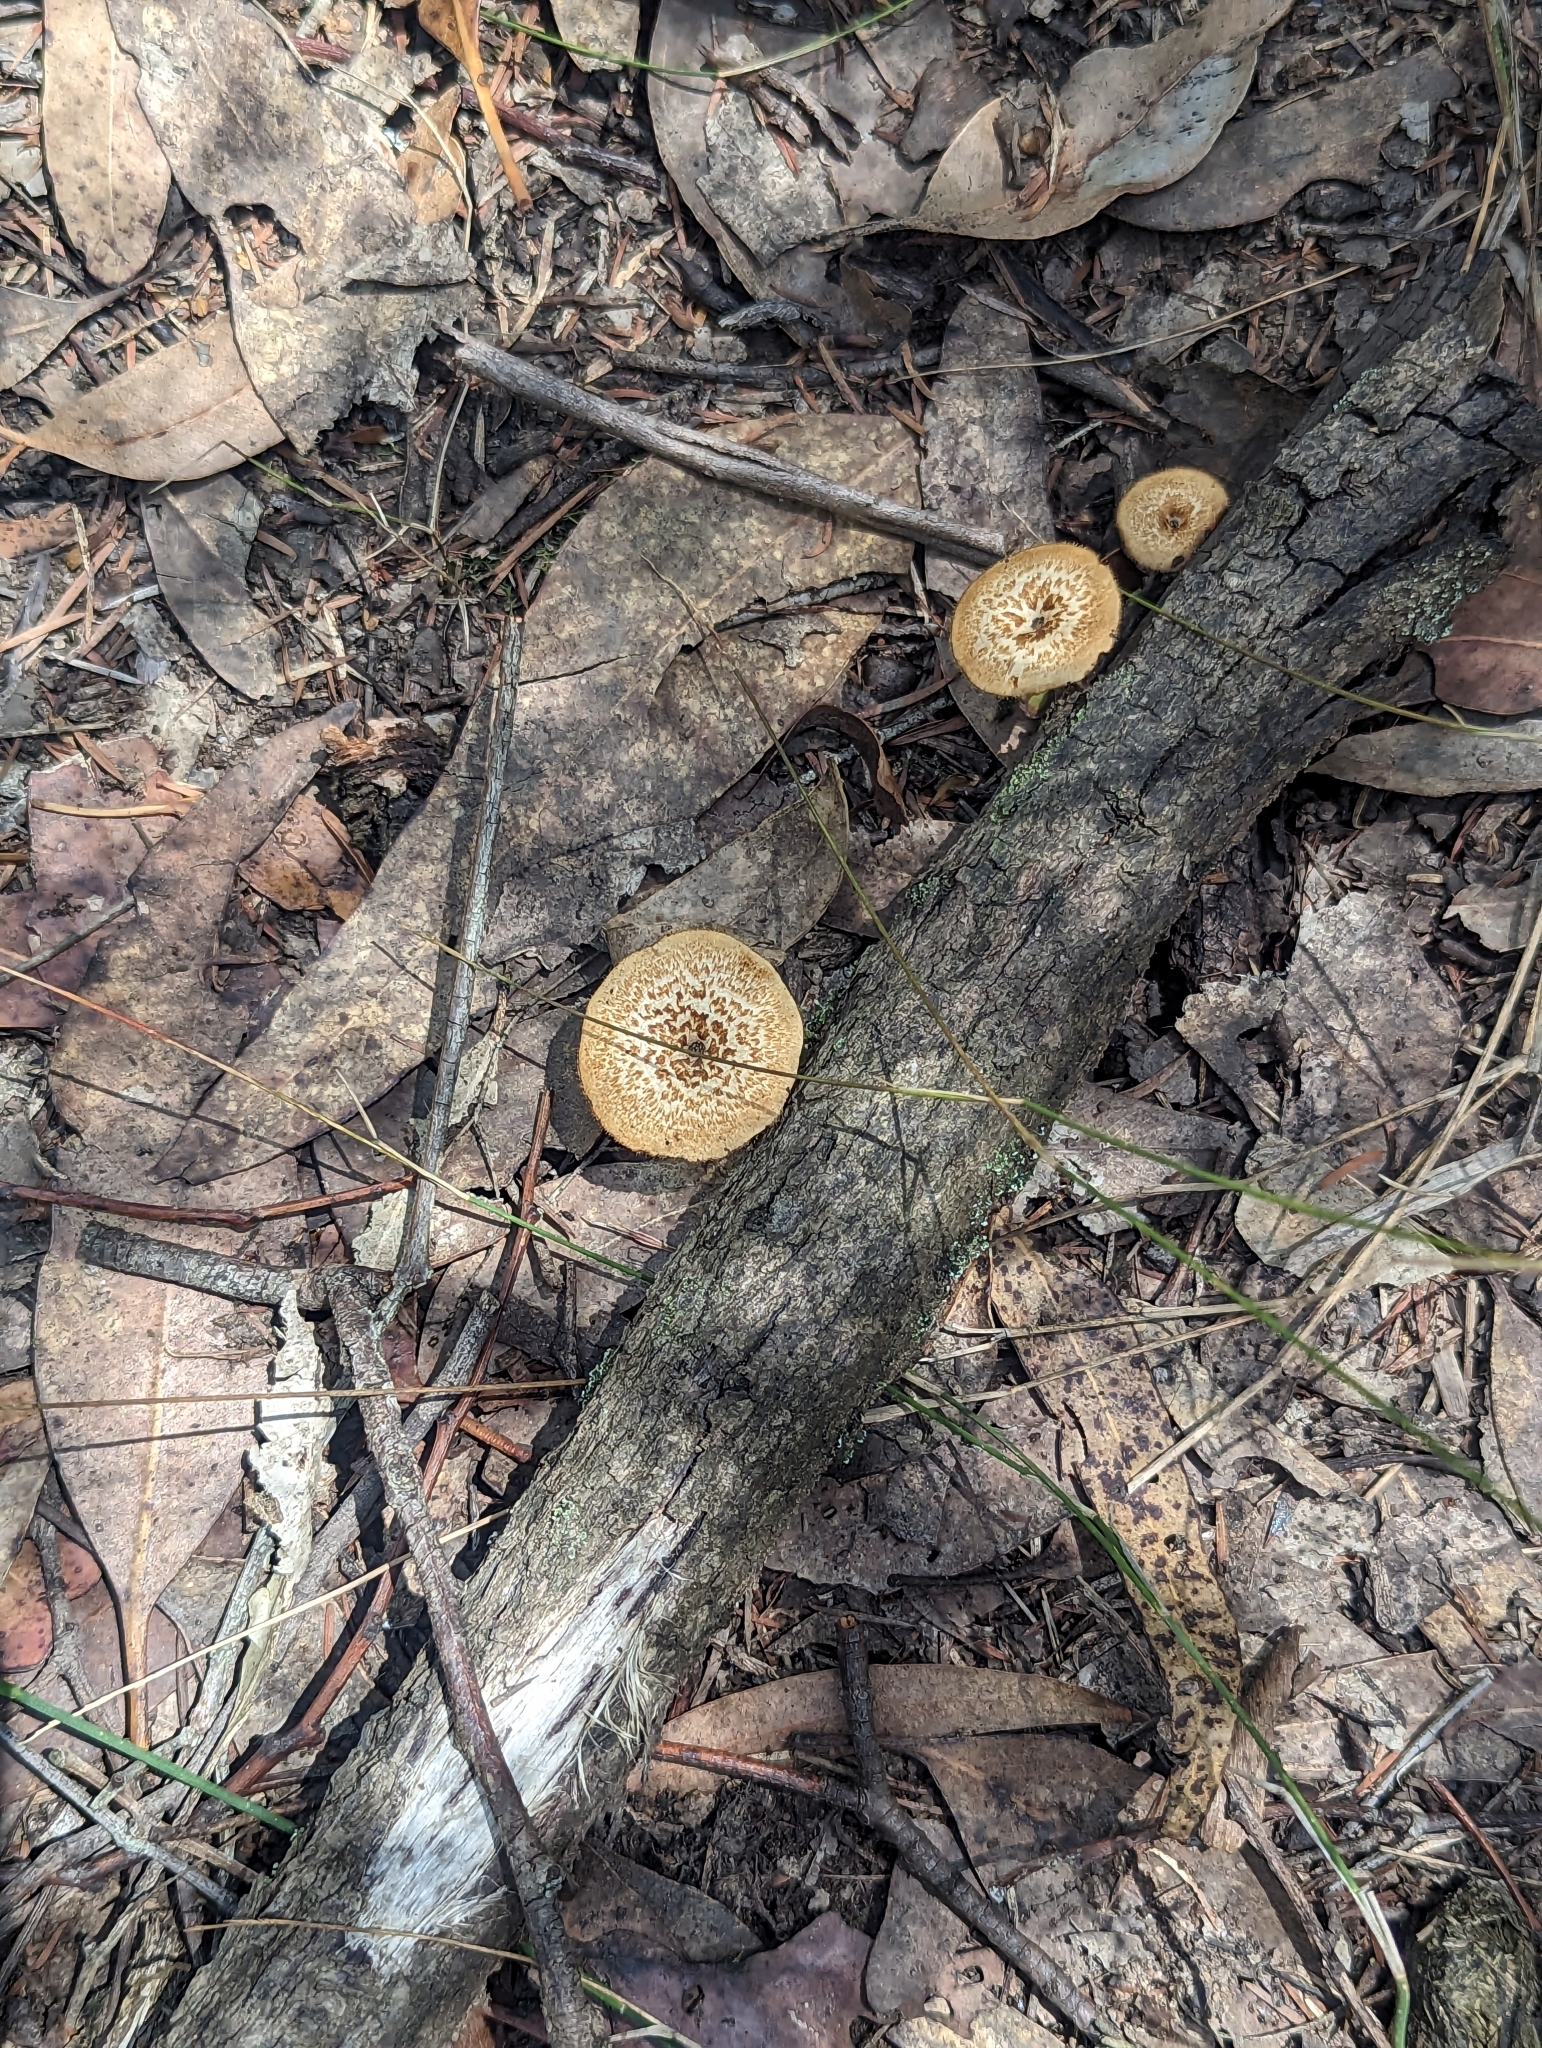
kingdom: Fungi
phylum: Basidiomycota
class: Agaricomycetes
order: Polyporales
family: Polyporaceae
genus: Lentinus
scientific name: Lentinus arcularius
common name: Spring polypore
